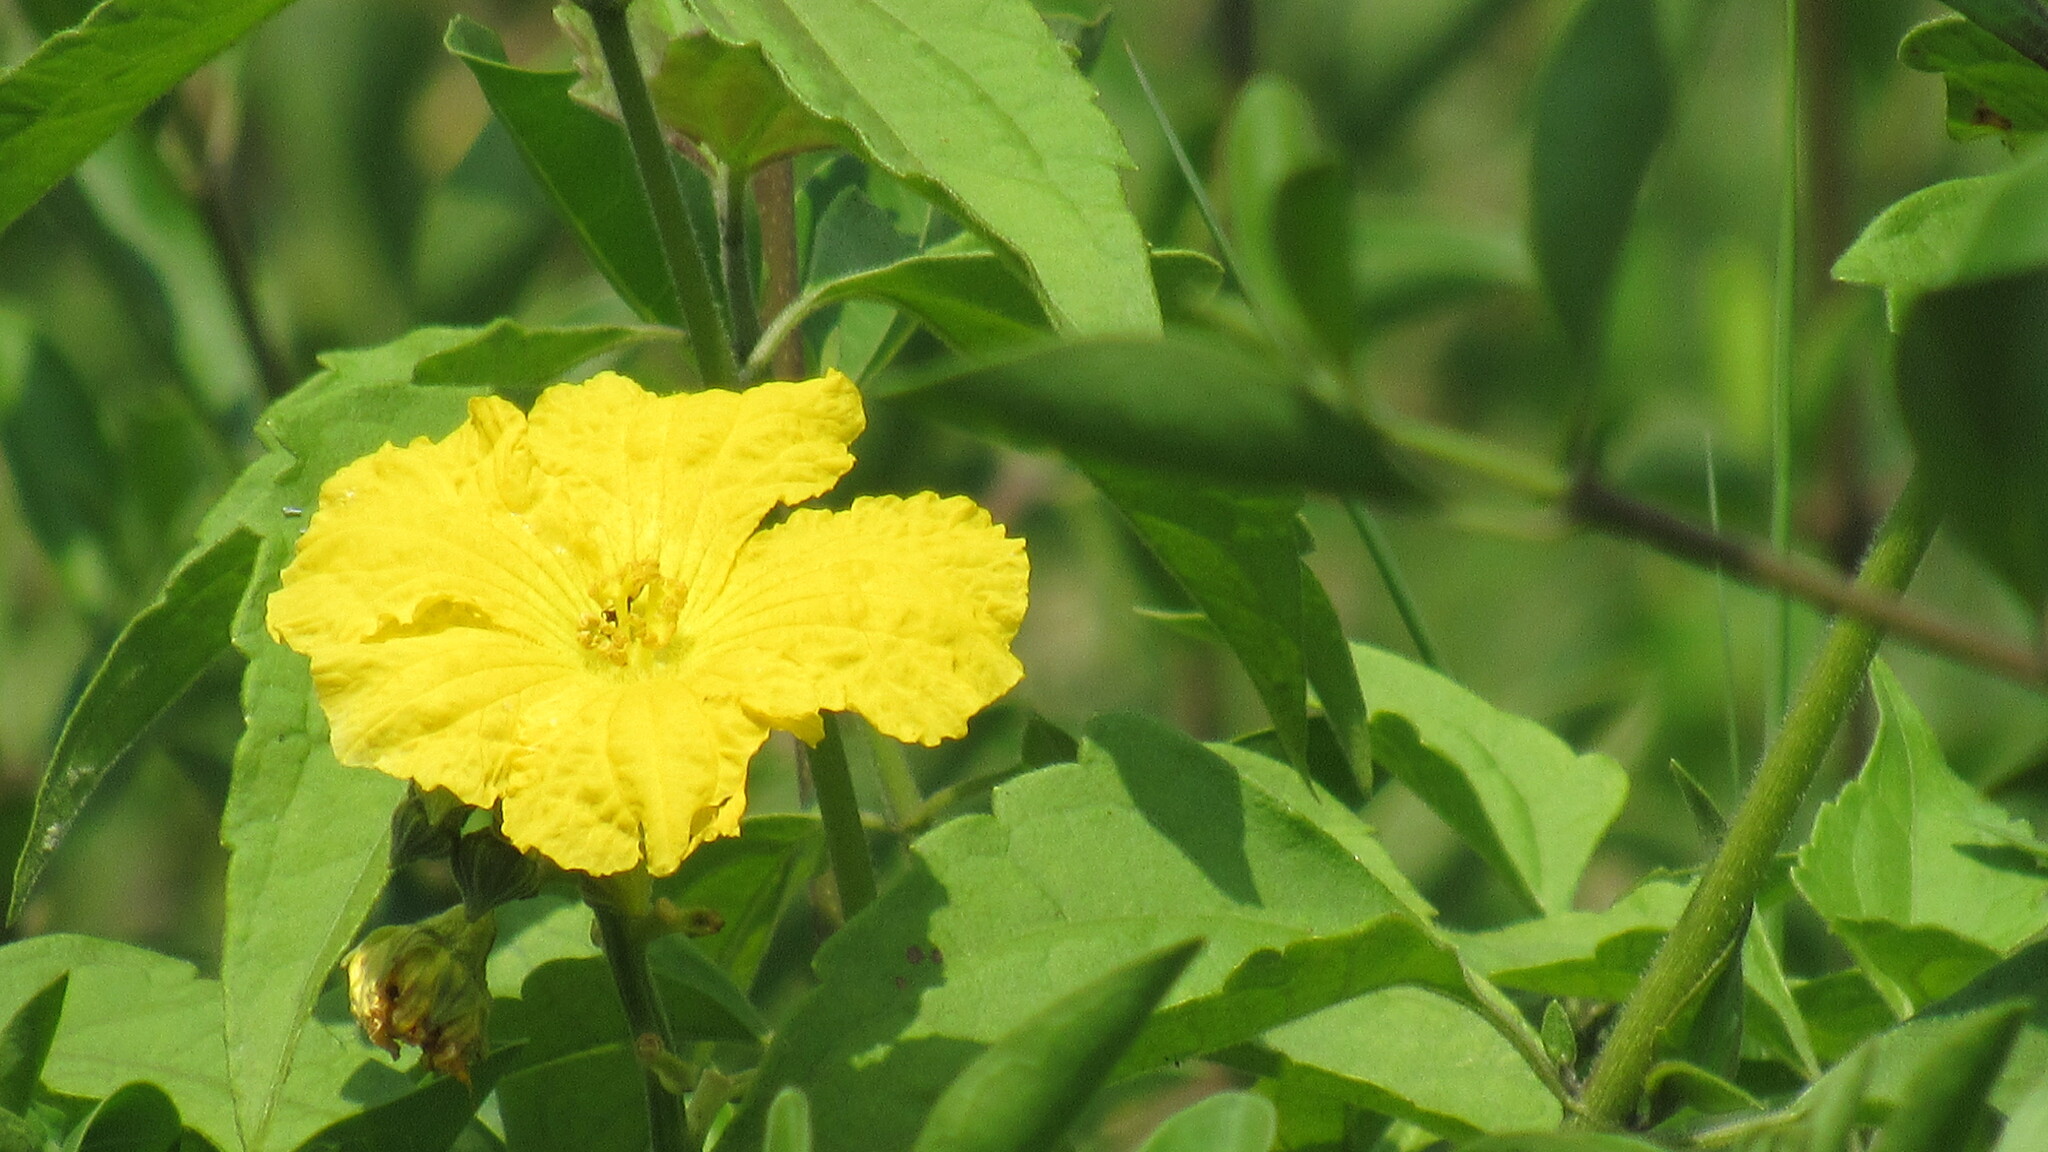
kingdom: Plantae
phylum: Tracheophyta
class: Magnoliopsida
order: Cucurbitales
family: Cucurbitaceae
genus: Luffa
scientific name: Luffa aegyptiaca
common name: Sponge gourd
